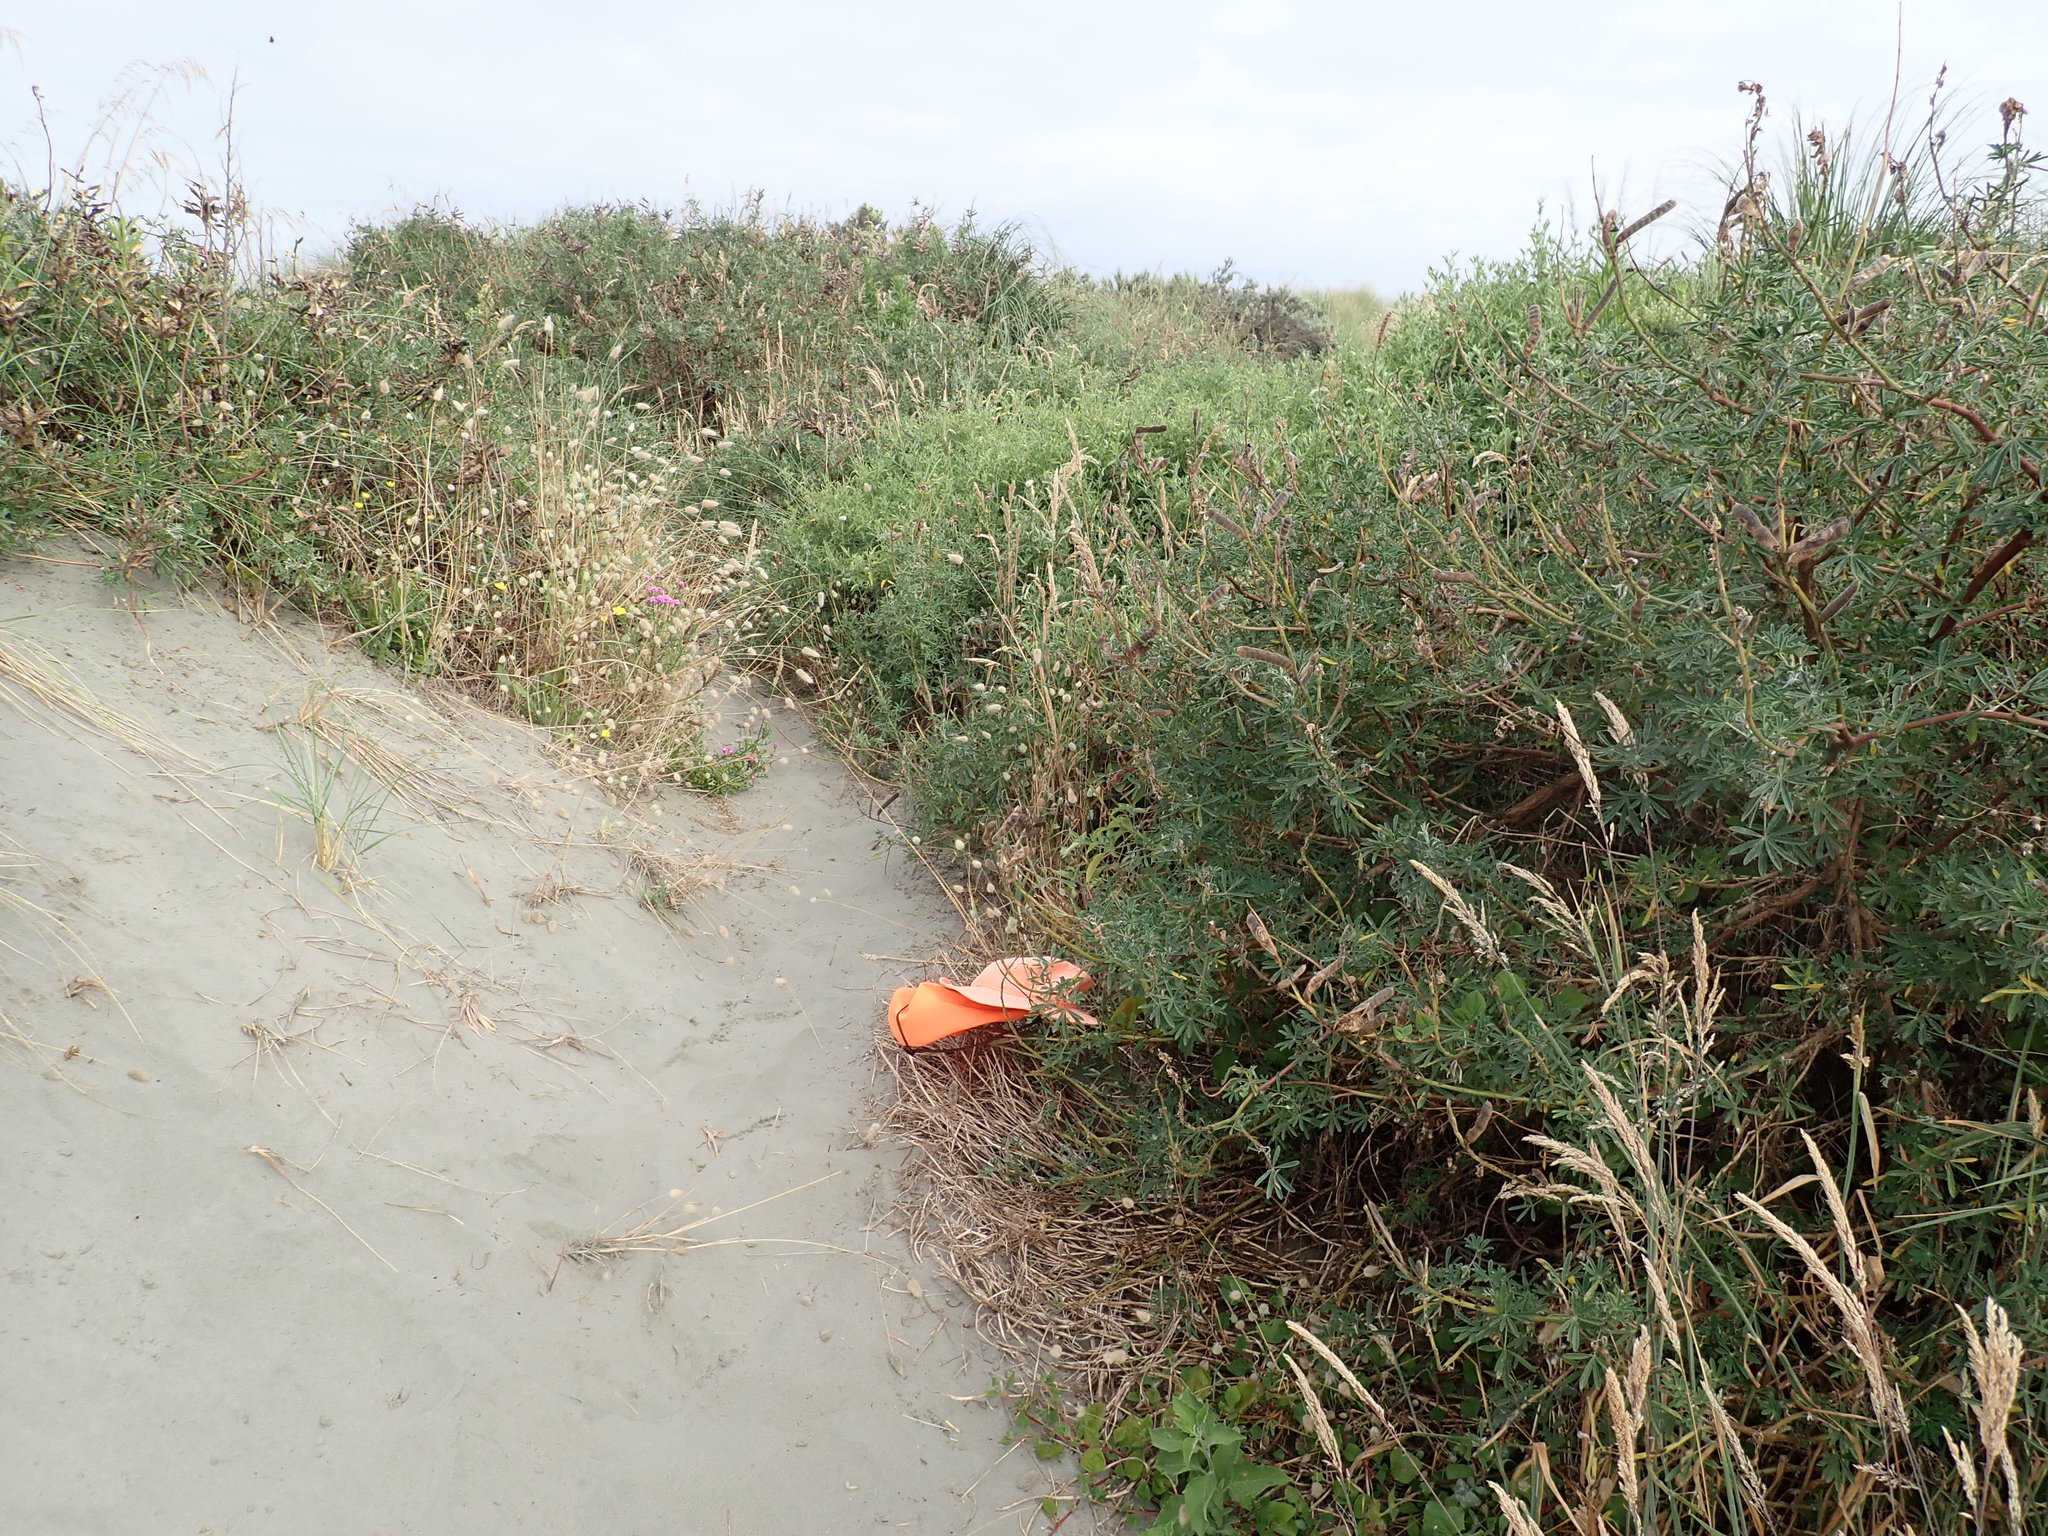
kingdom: Plantae
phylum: Tracheophyta
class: Magnoliopsida
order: Caryophyllales
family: Aizoaceae
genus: Tetragonia
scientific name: Tetragonia implexicoma
